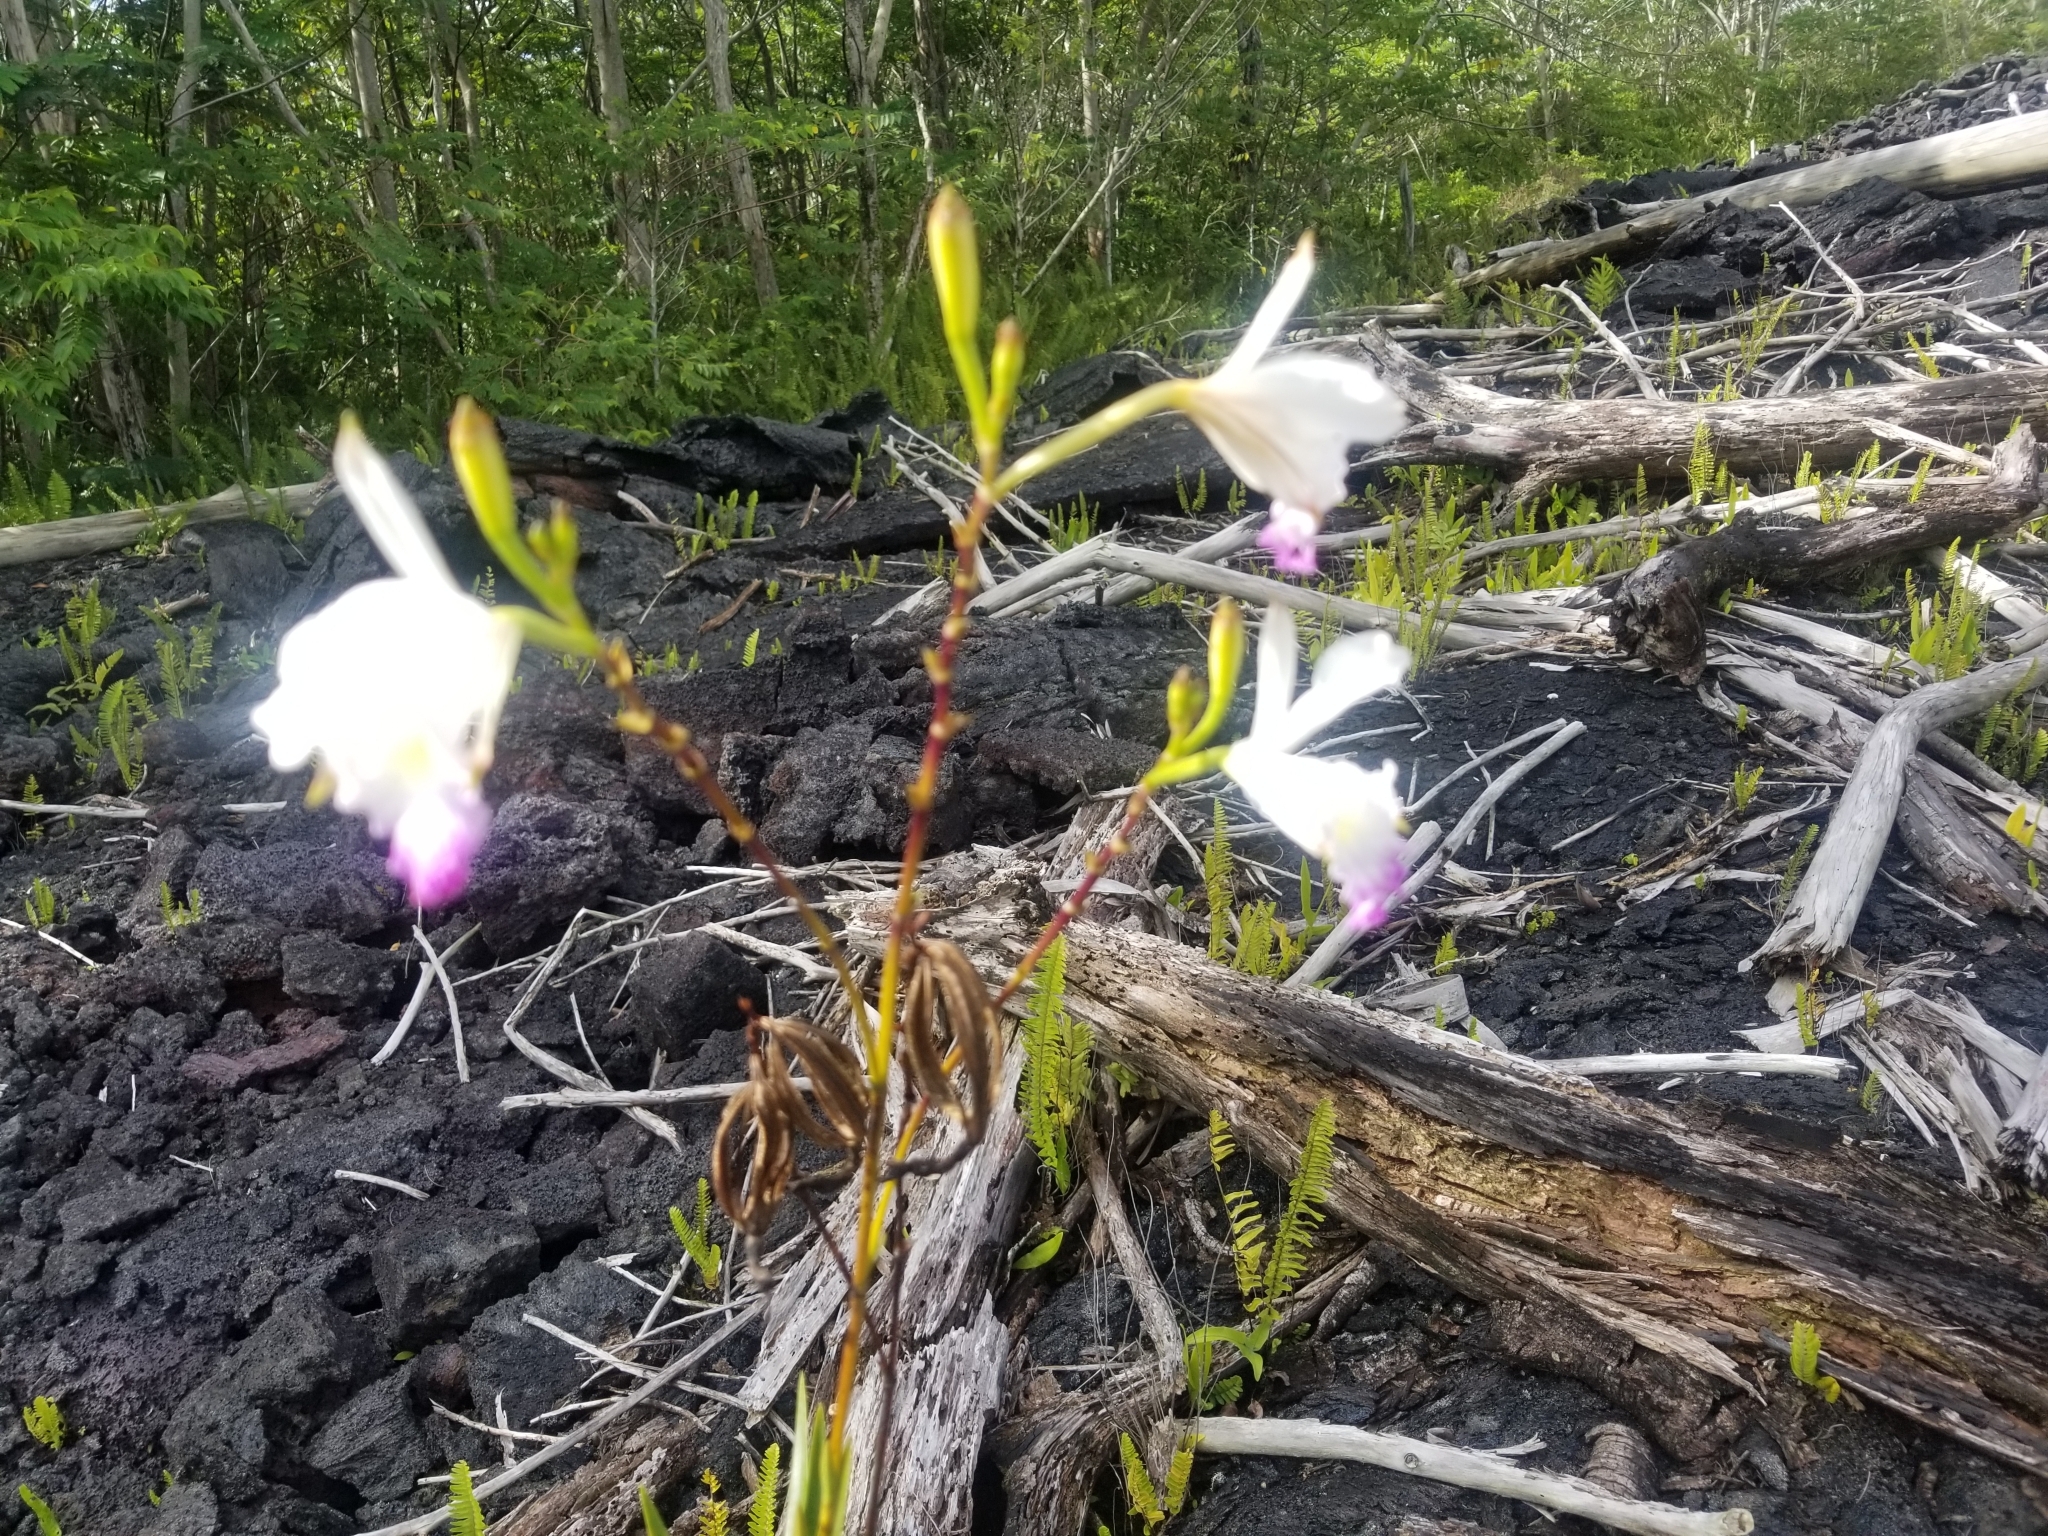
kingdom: Plantae
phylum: Tracheophyta
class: Liliopsida
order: Asparagales
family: Orchidaceae
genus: Arundina
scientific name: Arundina graminifolia
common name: Bamboo orchid
